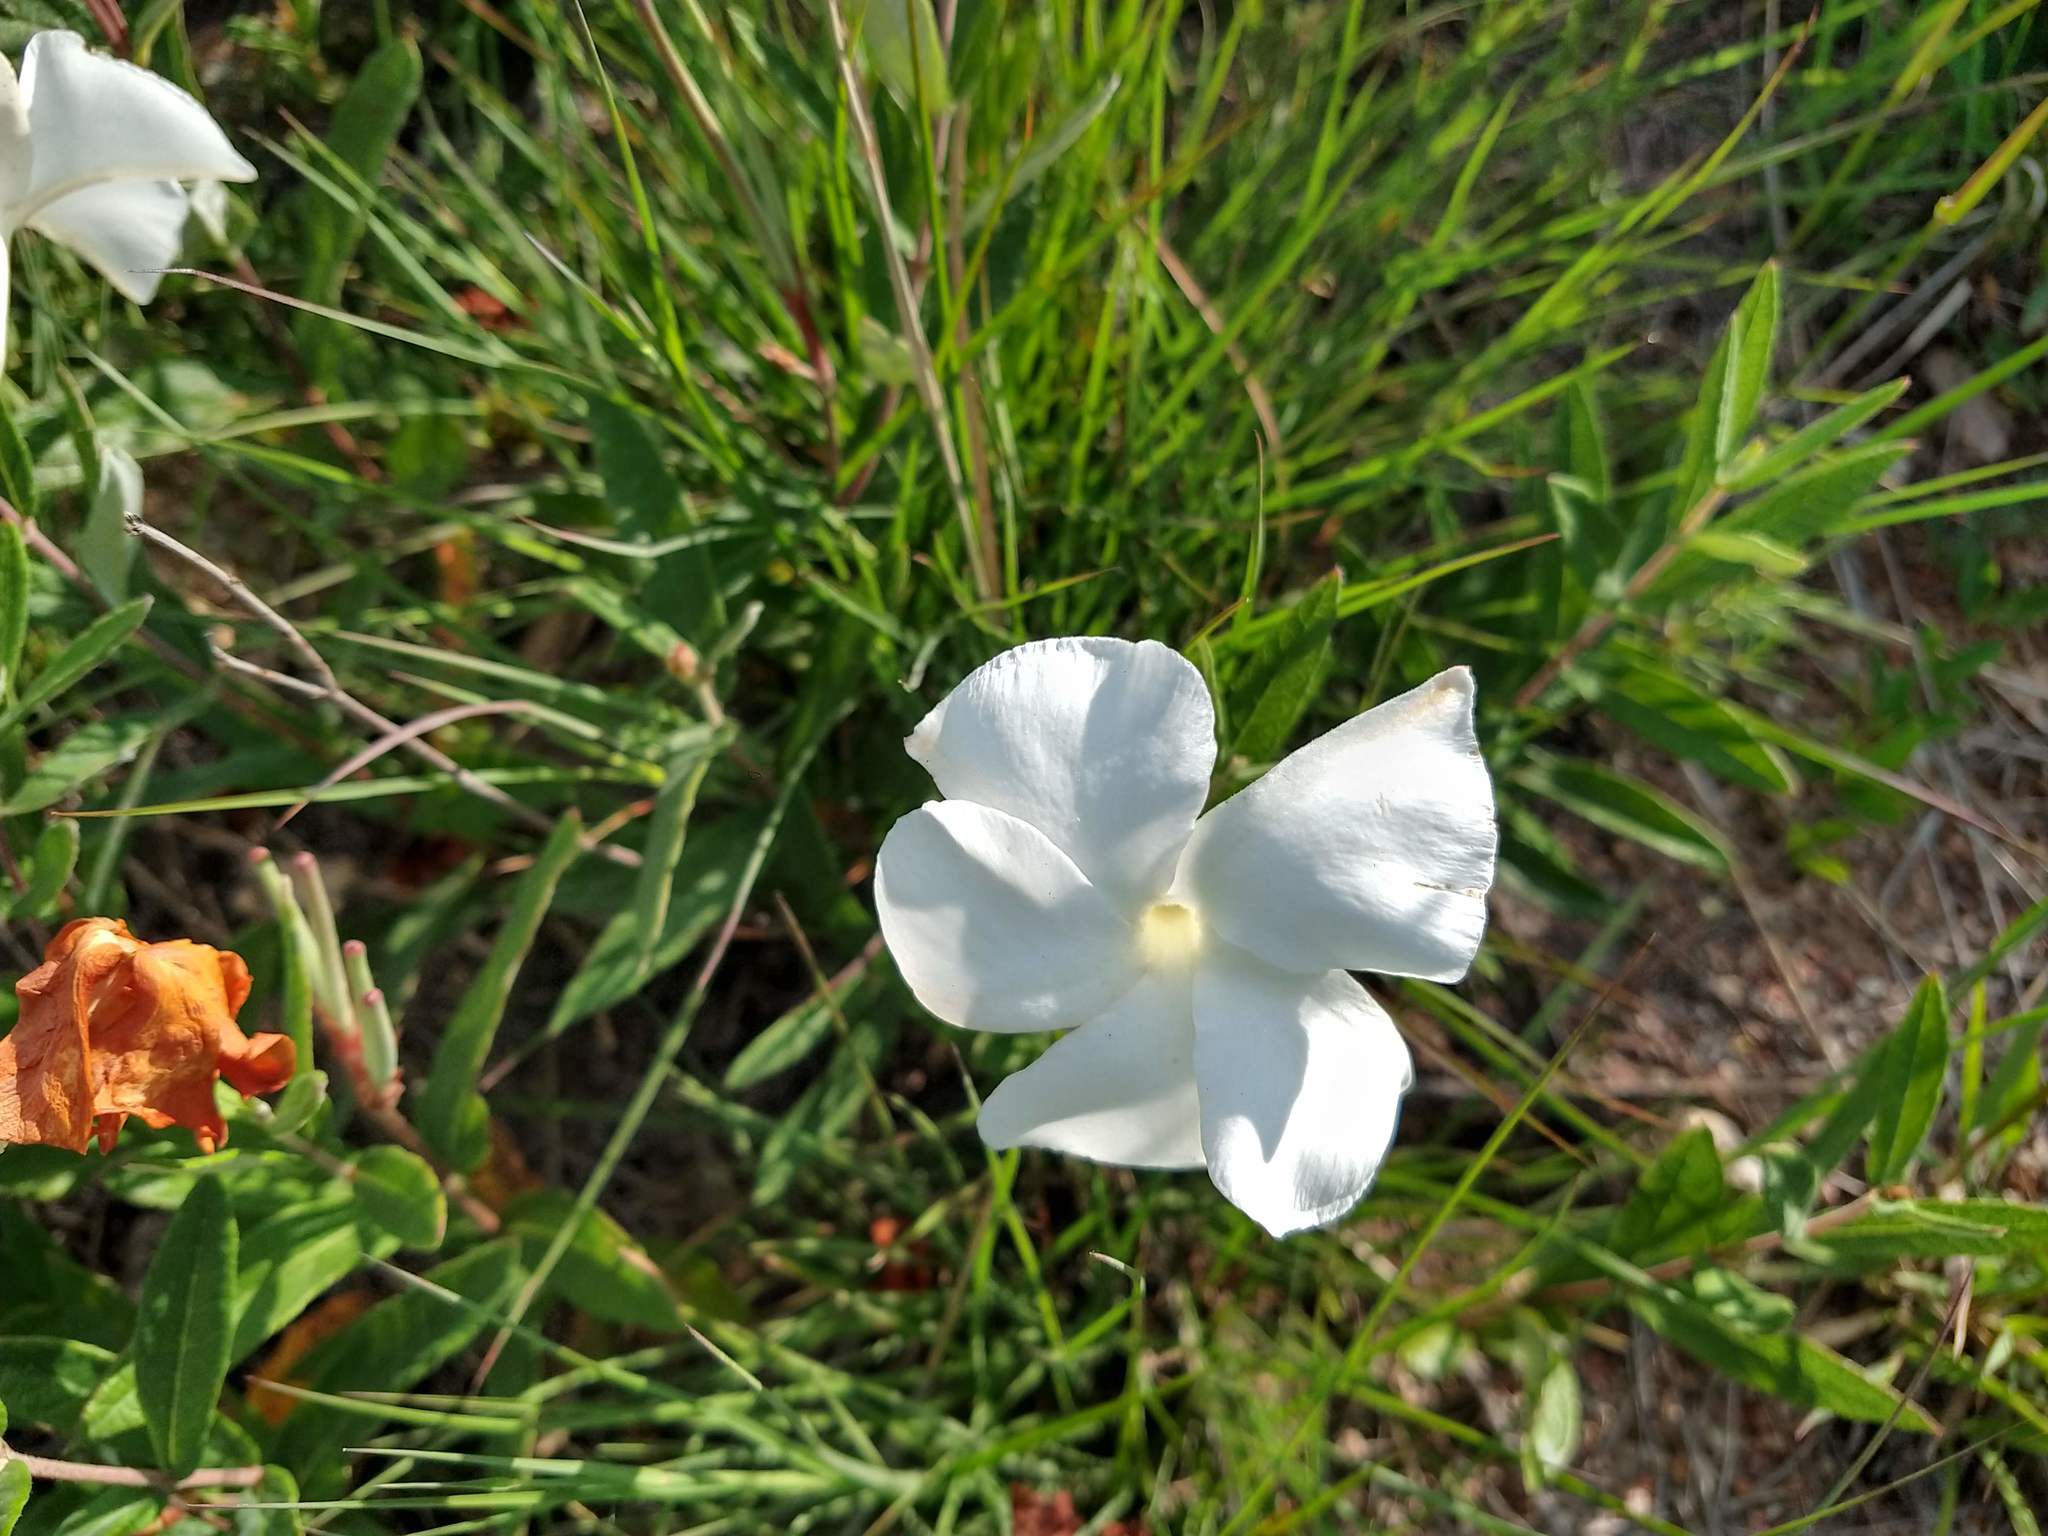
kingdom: Plantae
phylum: Tracheophyta
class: Magnoliopsida
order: Gentianales
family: Apocynaceae
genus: Mandevilla
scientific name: Mandevilla hypoleuca
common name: Davis mountain rocktrumpet
